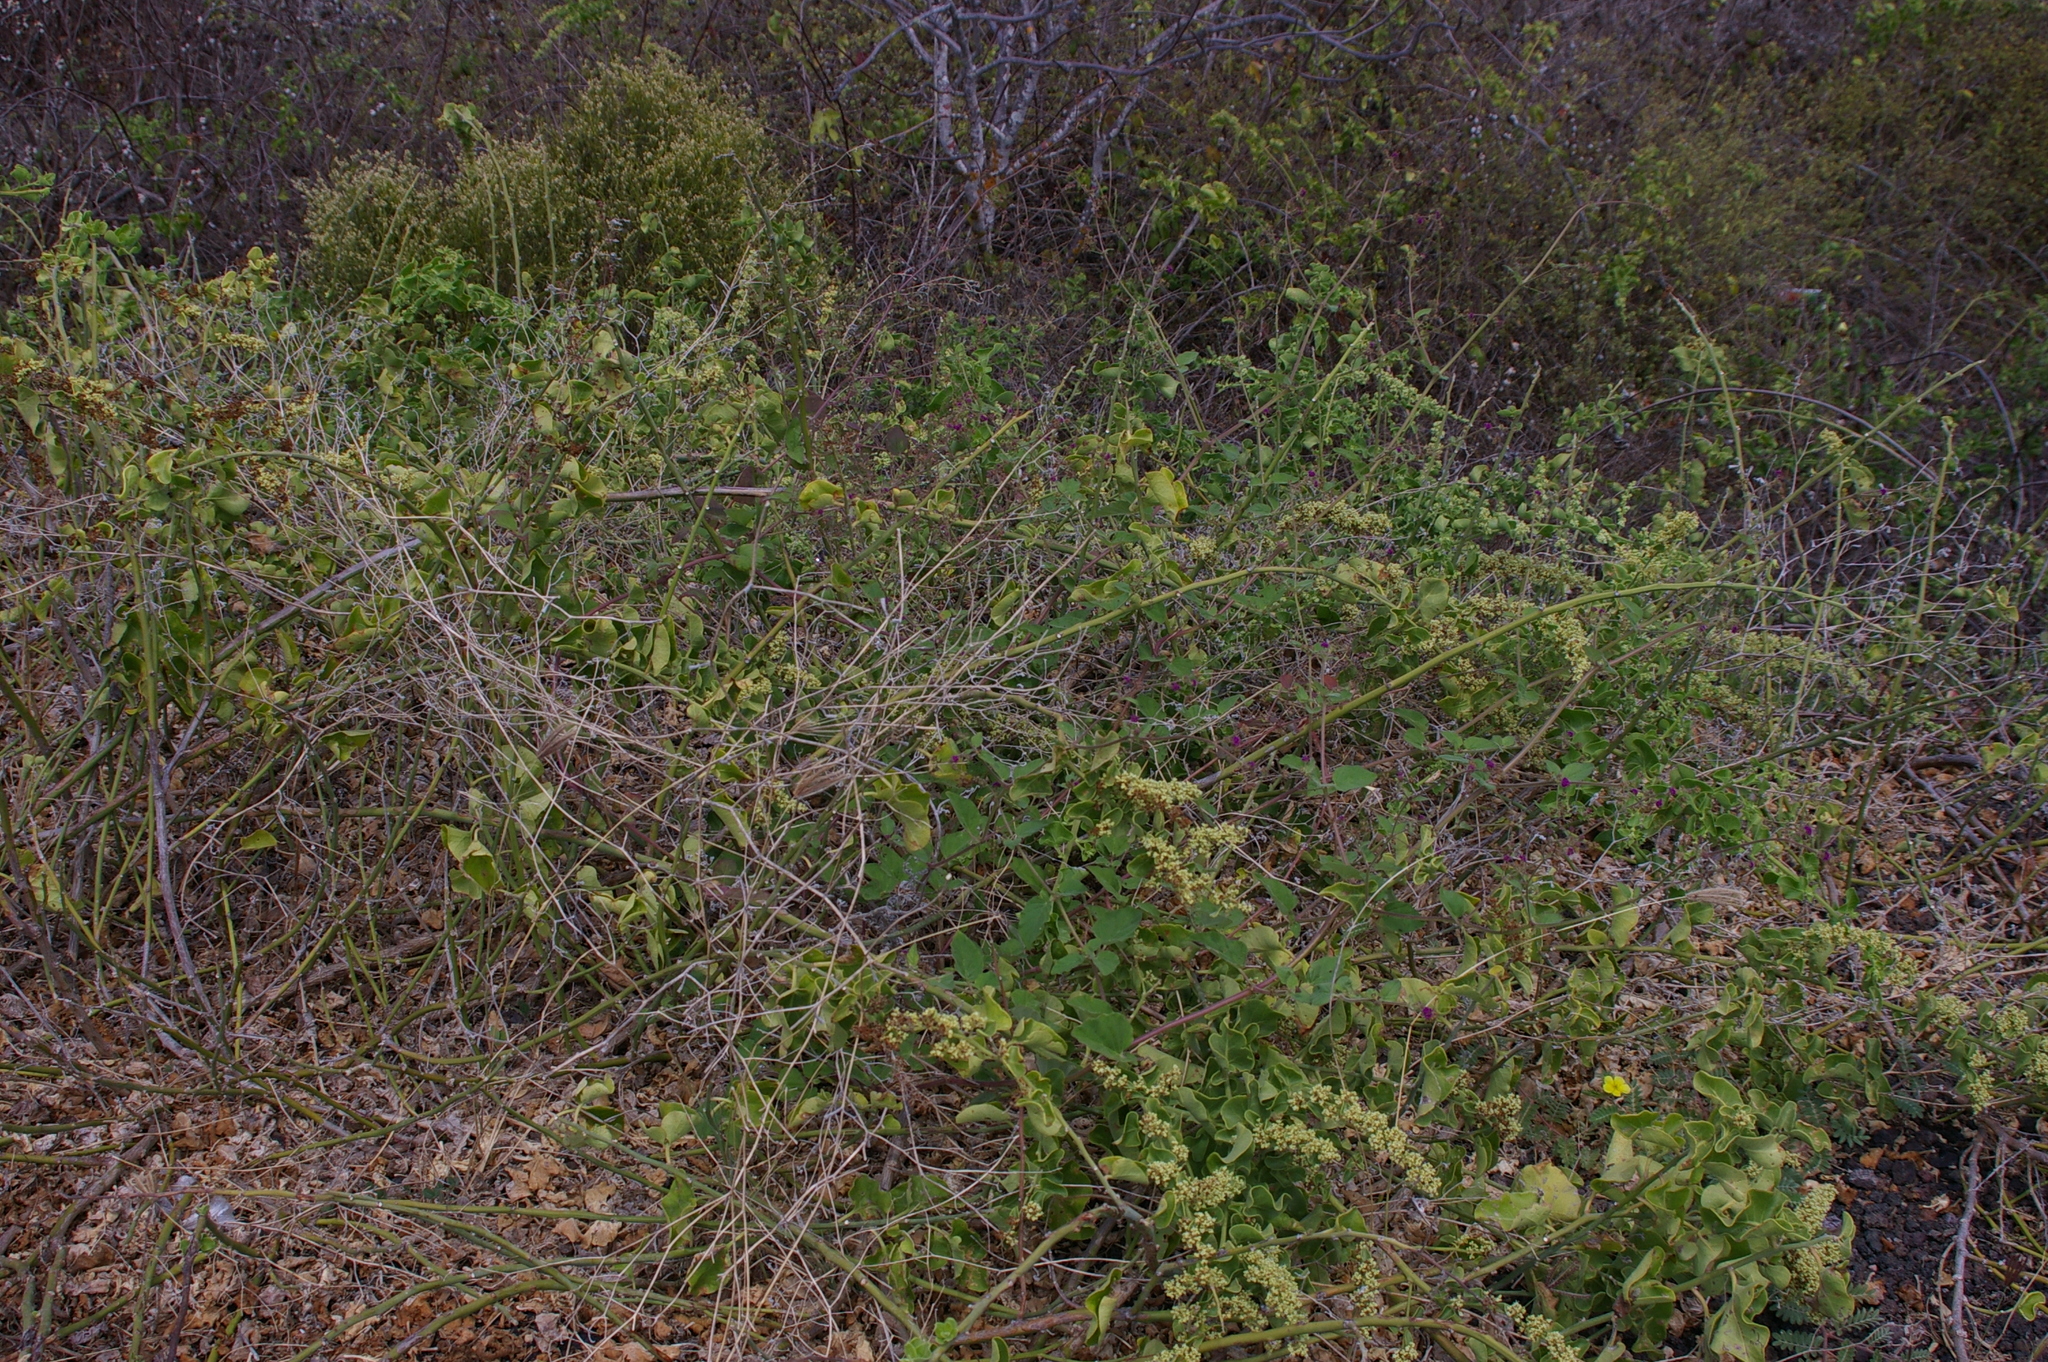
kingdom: Plantae
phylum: Tracheophyta
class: Magnoliopsida
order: Caryophyllales
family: Nyctaginaceae
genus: Cryptocarpus
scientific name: Cryptocarpus pyriformis
